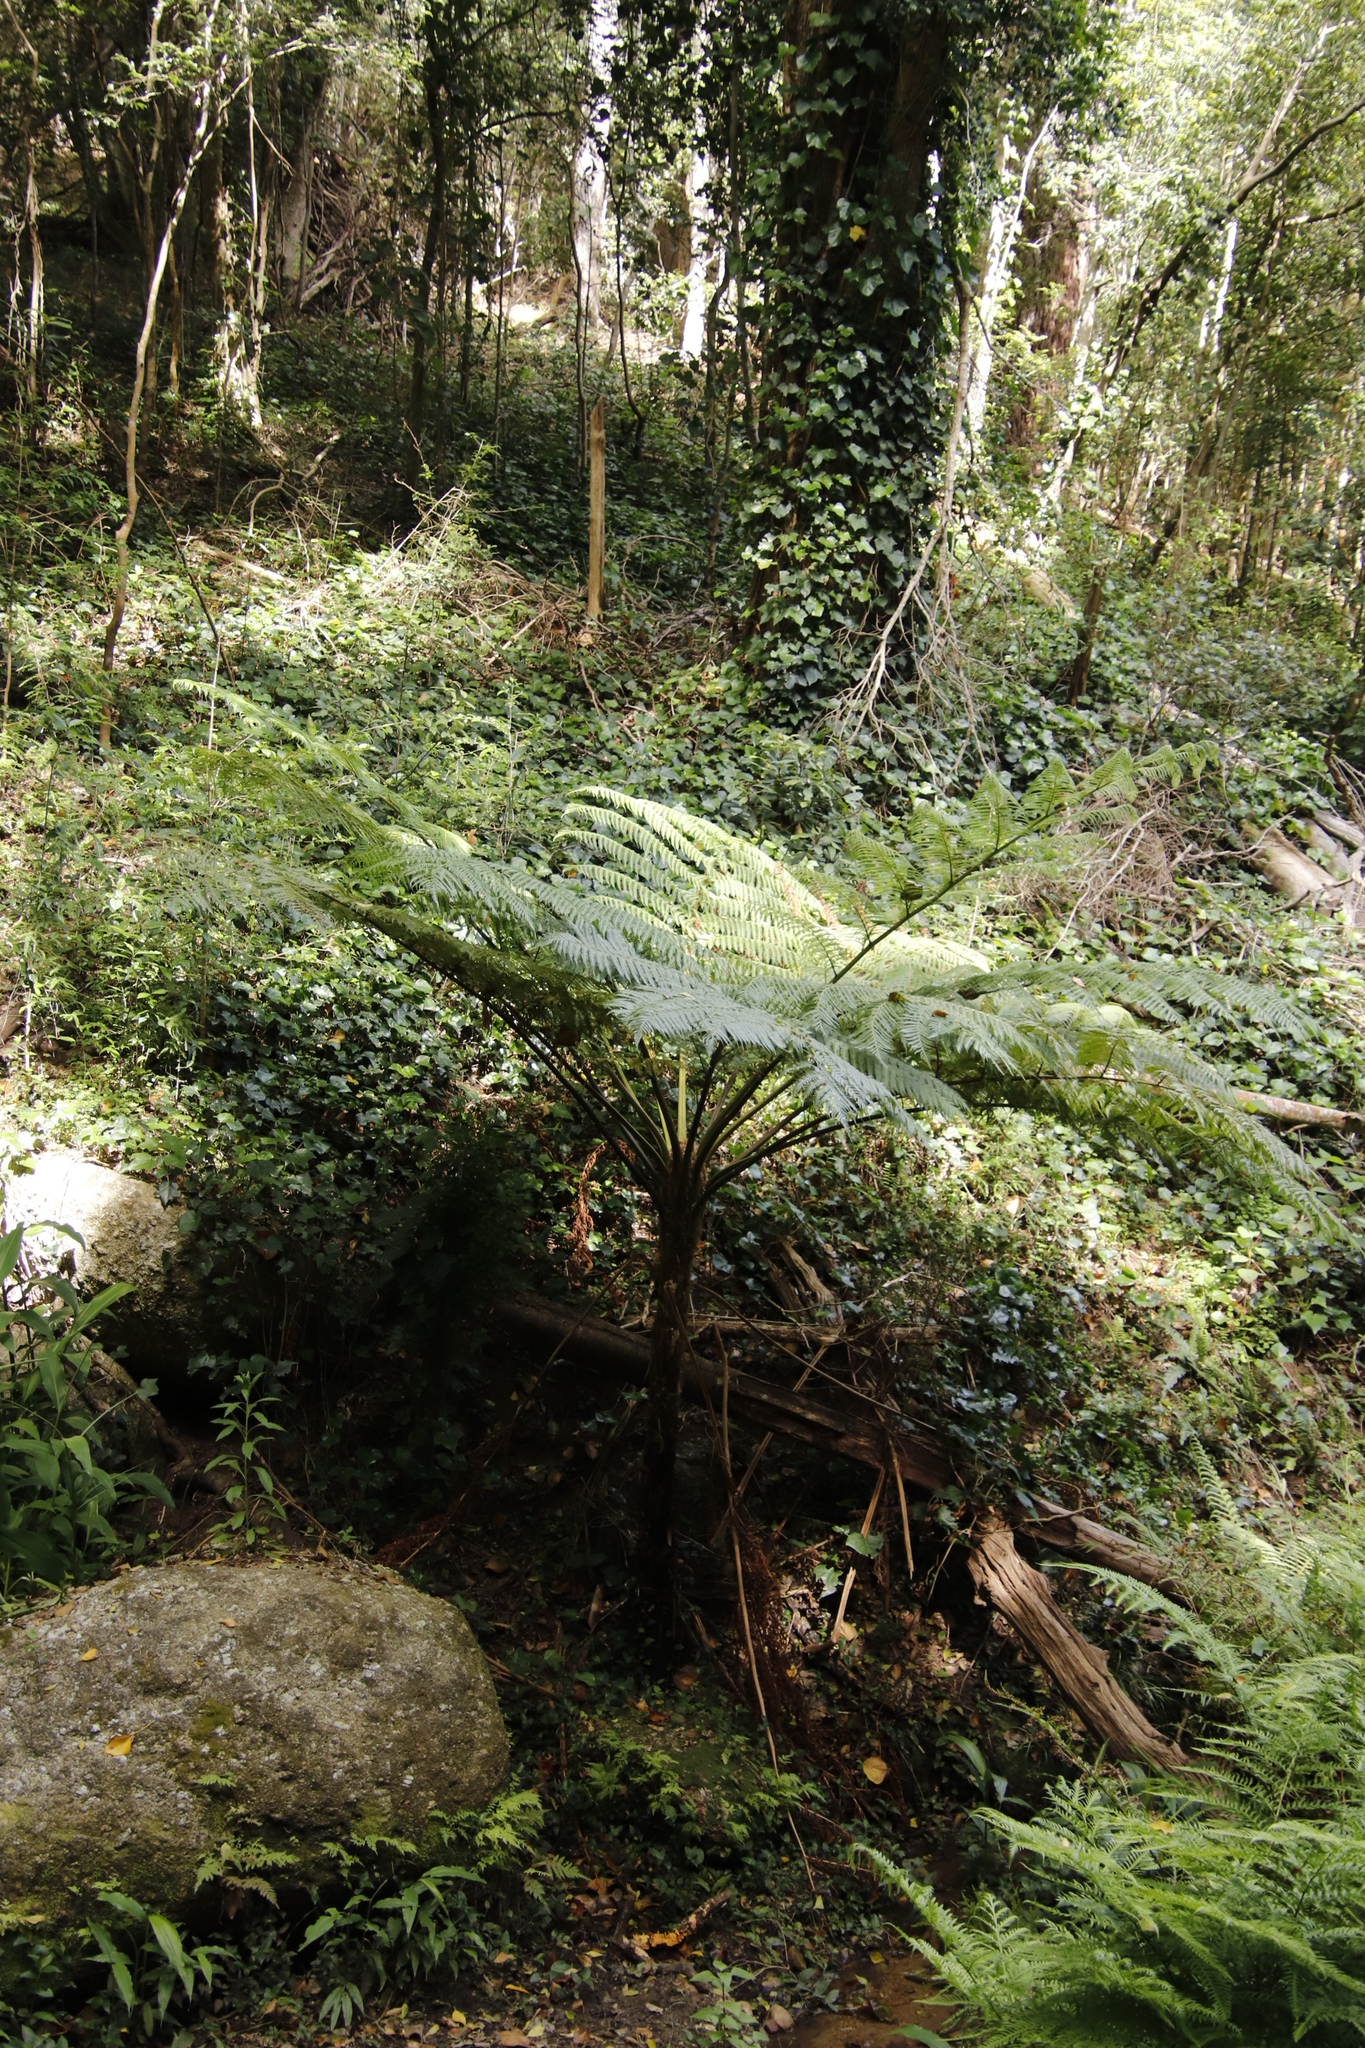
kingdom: Plantae
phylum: Tracheophyta
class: Polypodiopsida
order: Cyatheales
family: Cyatheaceae
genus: Sphaeropteris
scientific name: Sphaeropteris cooperi
